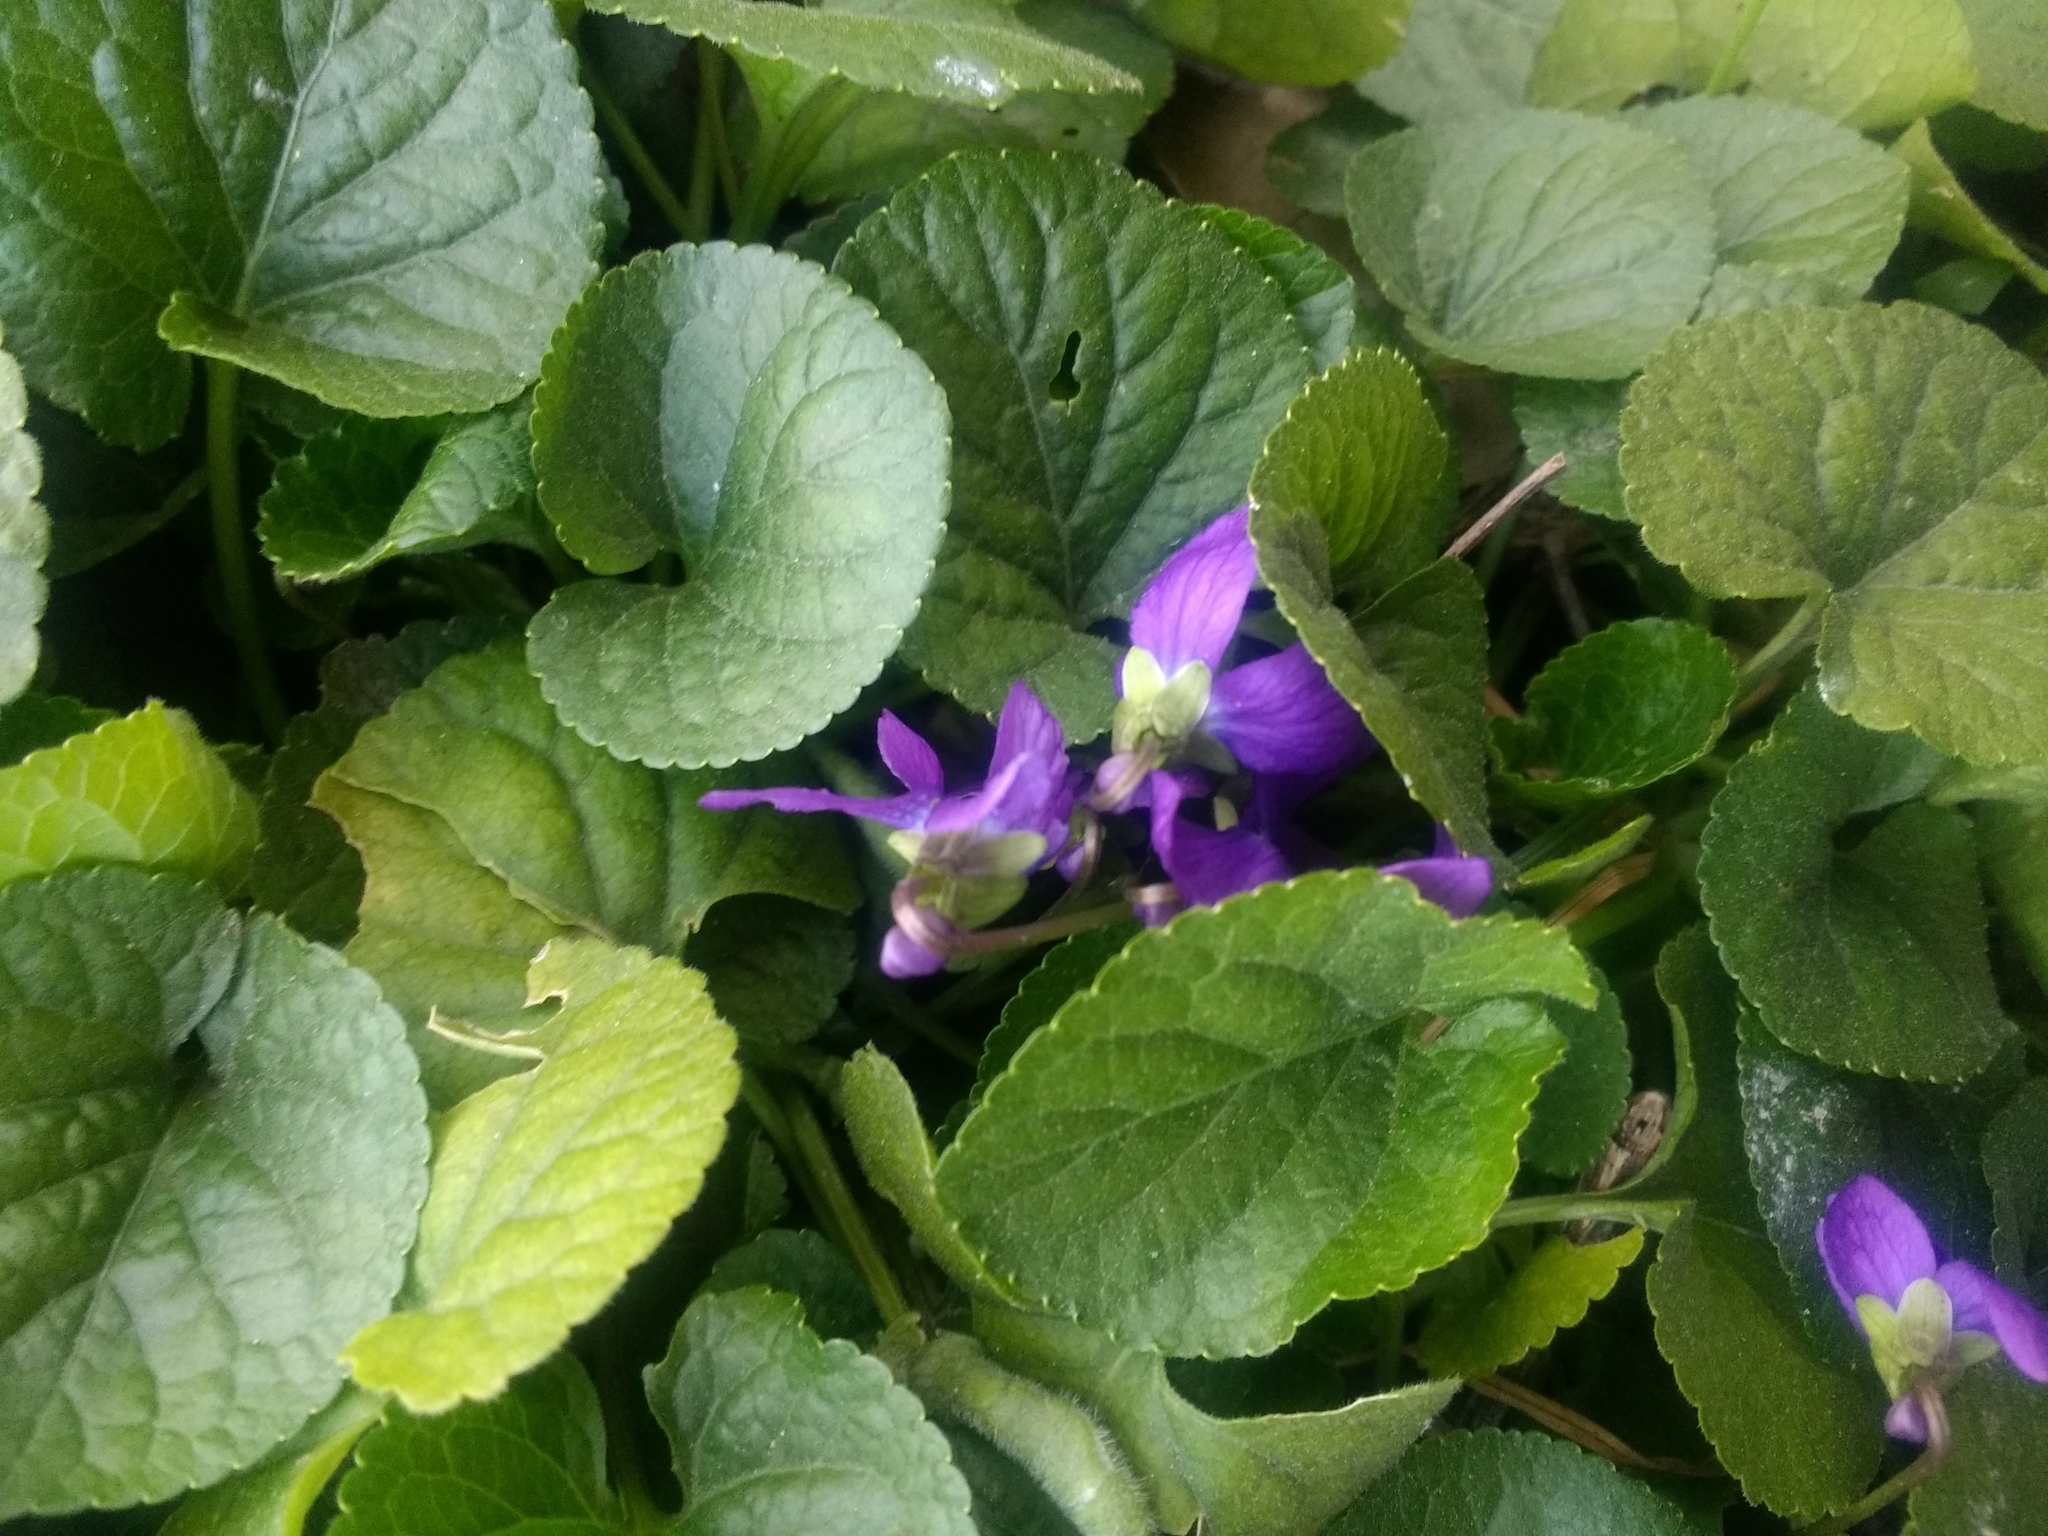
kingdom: Plantae
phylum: Tracheophyta
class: Magnoliopsida
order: Malpighiales
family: Violaceae
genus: Viola
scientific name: Viola odorata
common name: Sweet violet
